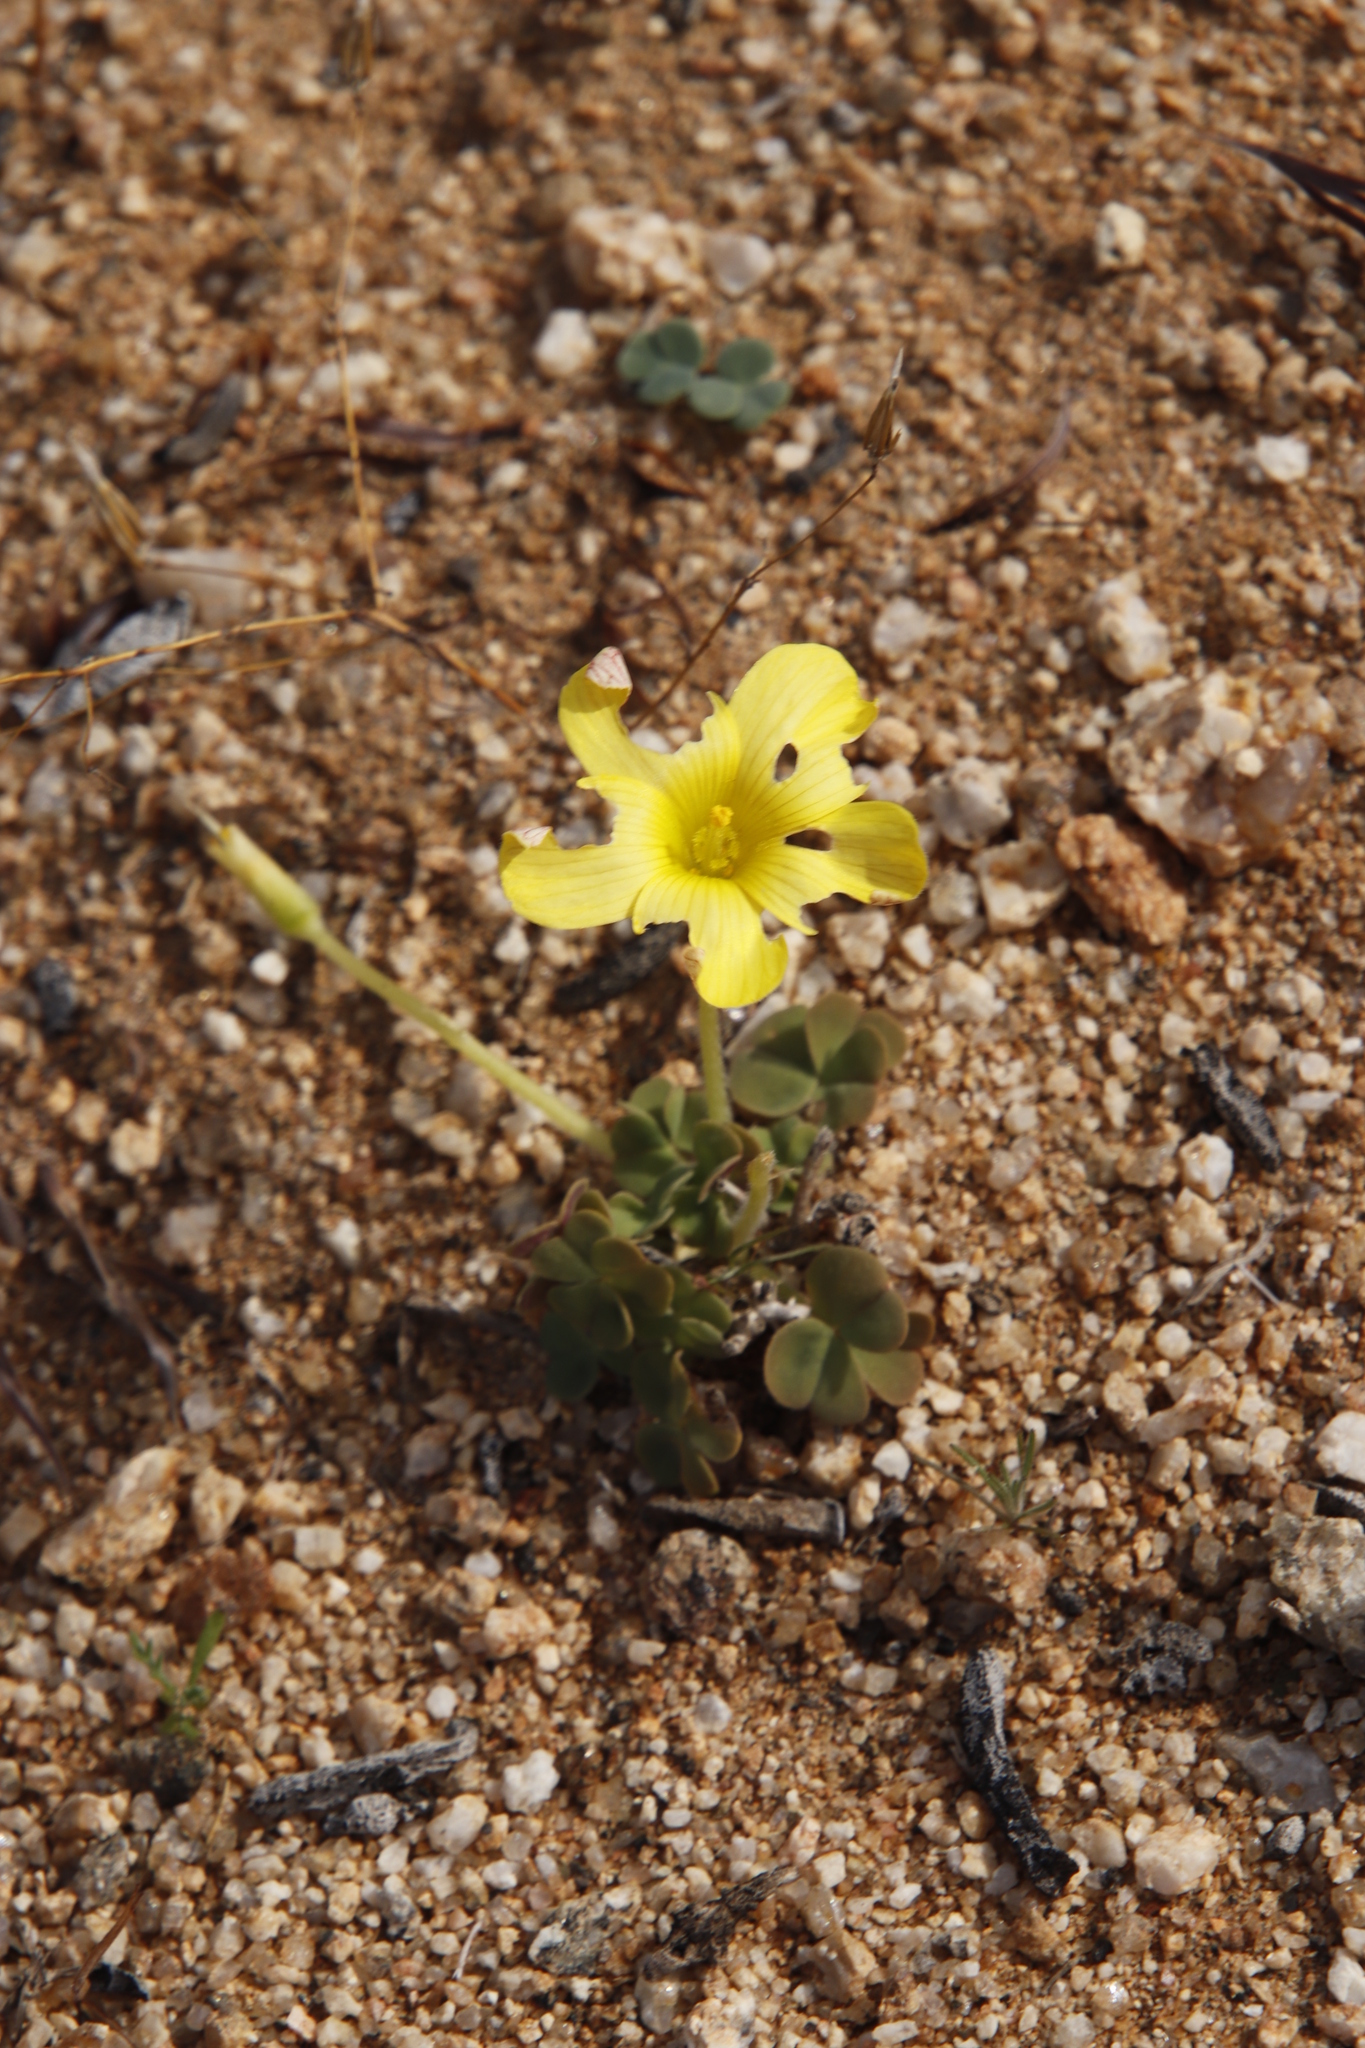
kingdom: Plantae
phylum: Tracheophyta
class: Magnoliopsida
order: Oxalidales
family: Oxalidaceae
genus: Oxalis
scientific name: Oxalis obtusa
